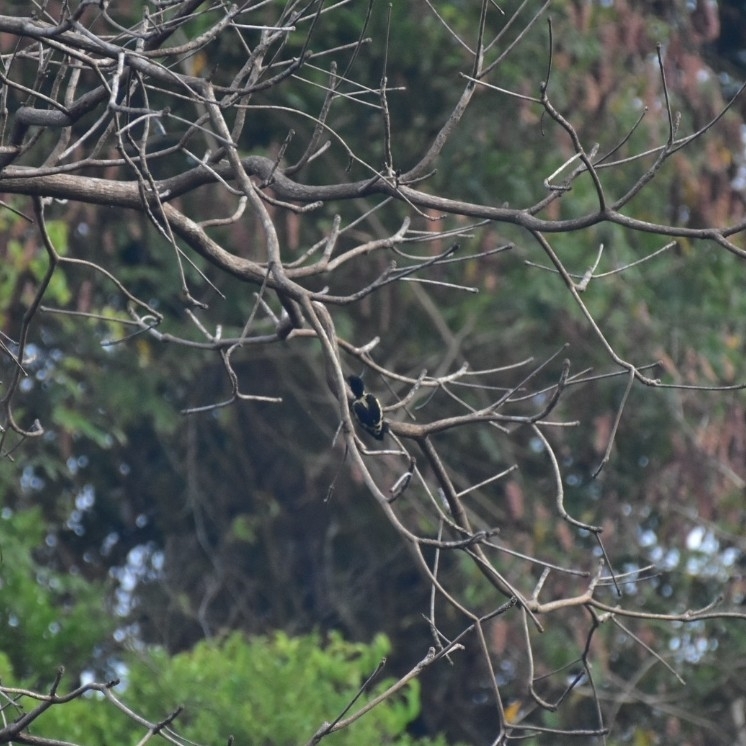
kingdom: Animalia
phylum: Chordata
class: Aves
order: Piciformes
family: Picidae
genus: Hemicircus
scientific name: Hemicircus canente
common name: Heart-spotted woodpecker
